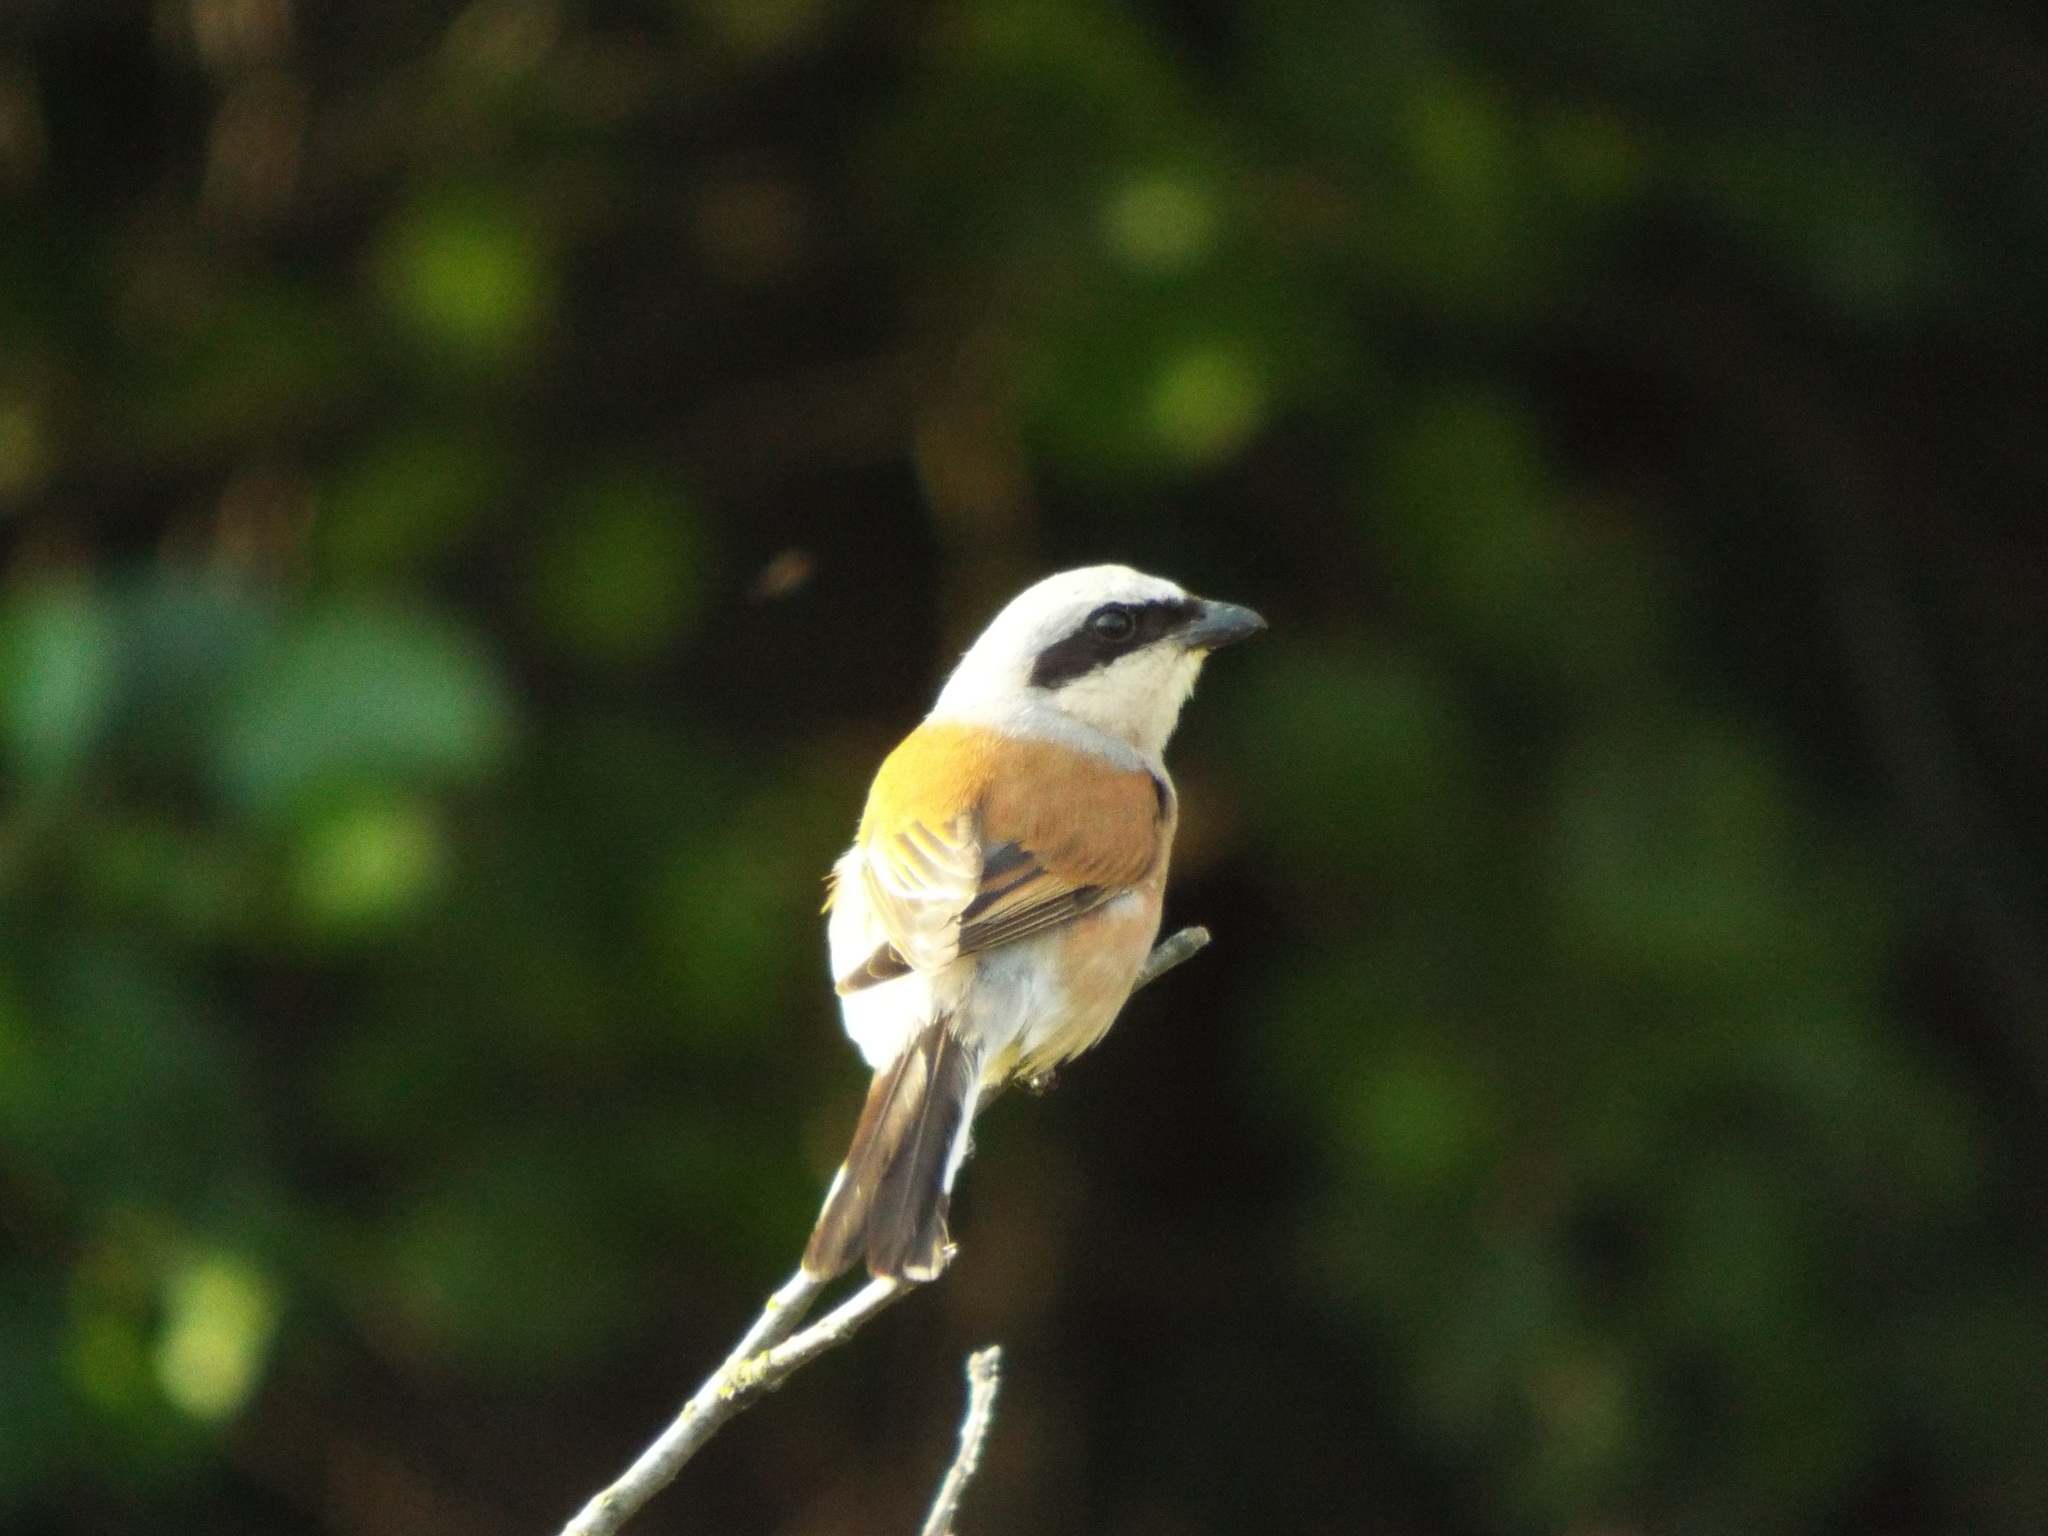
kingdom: Animalia
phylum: Chordata
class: Aves
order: Passeriformes
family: Laniidae
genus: Lanius
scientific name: Lanius collurio
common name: Red-backed shrike
